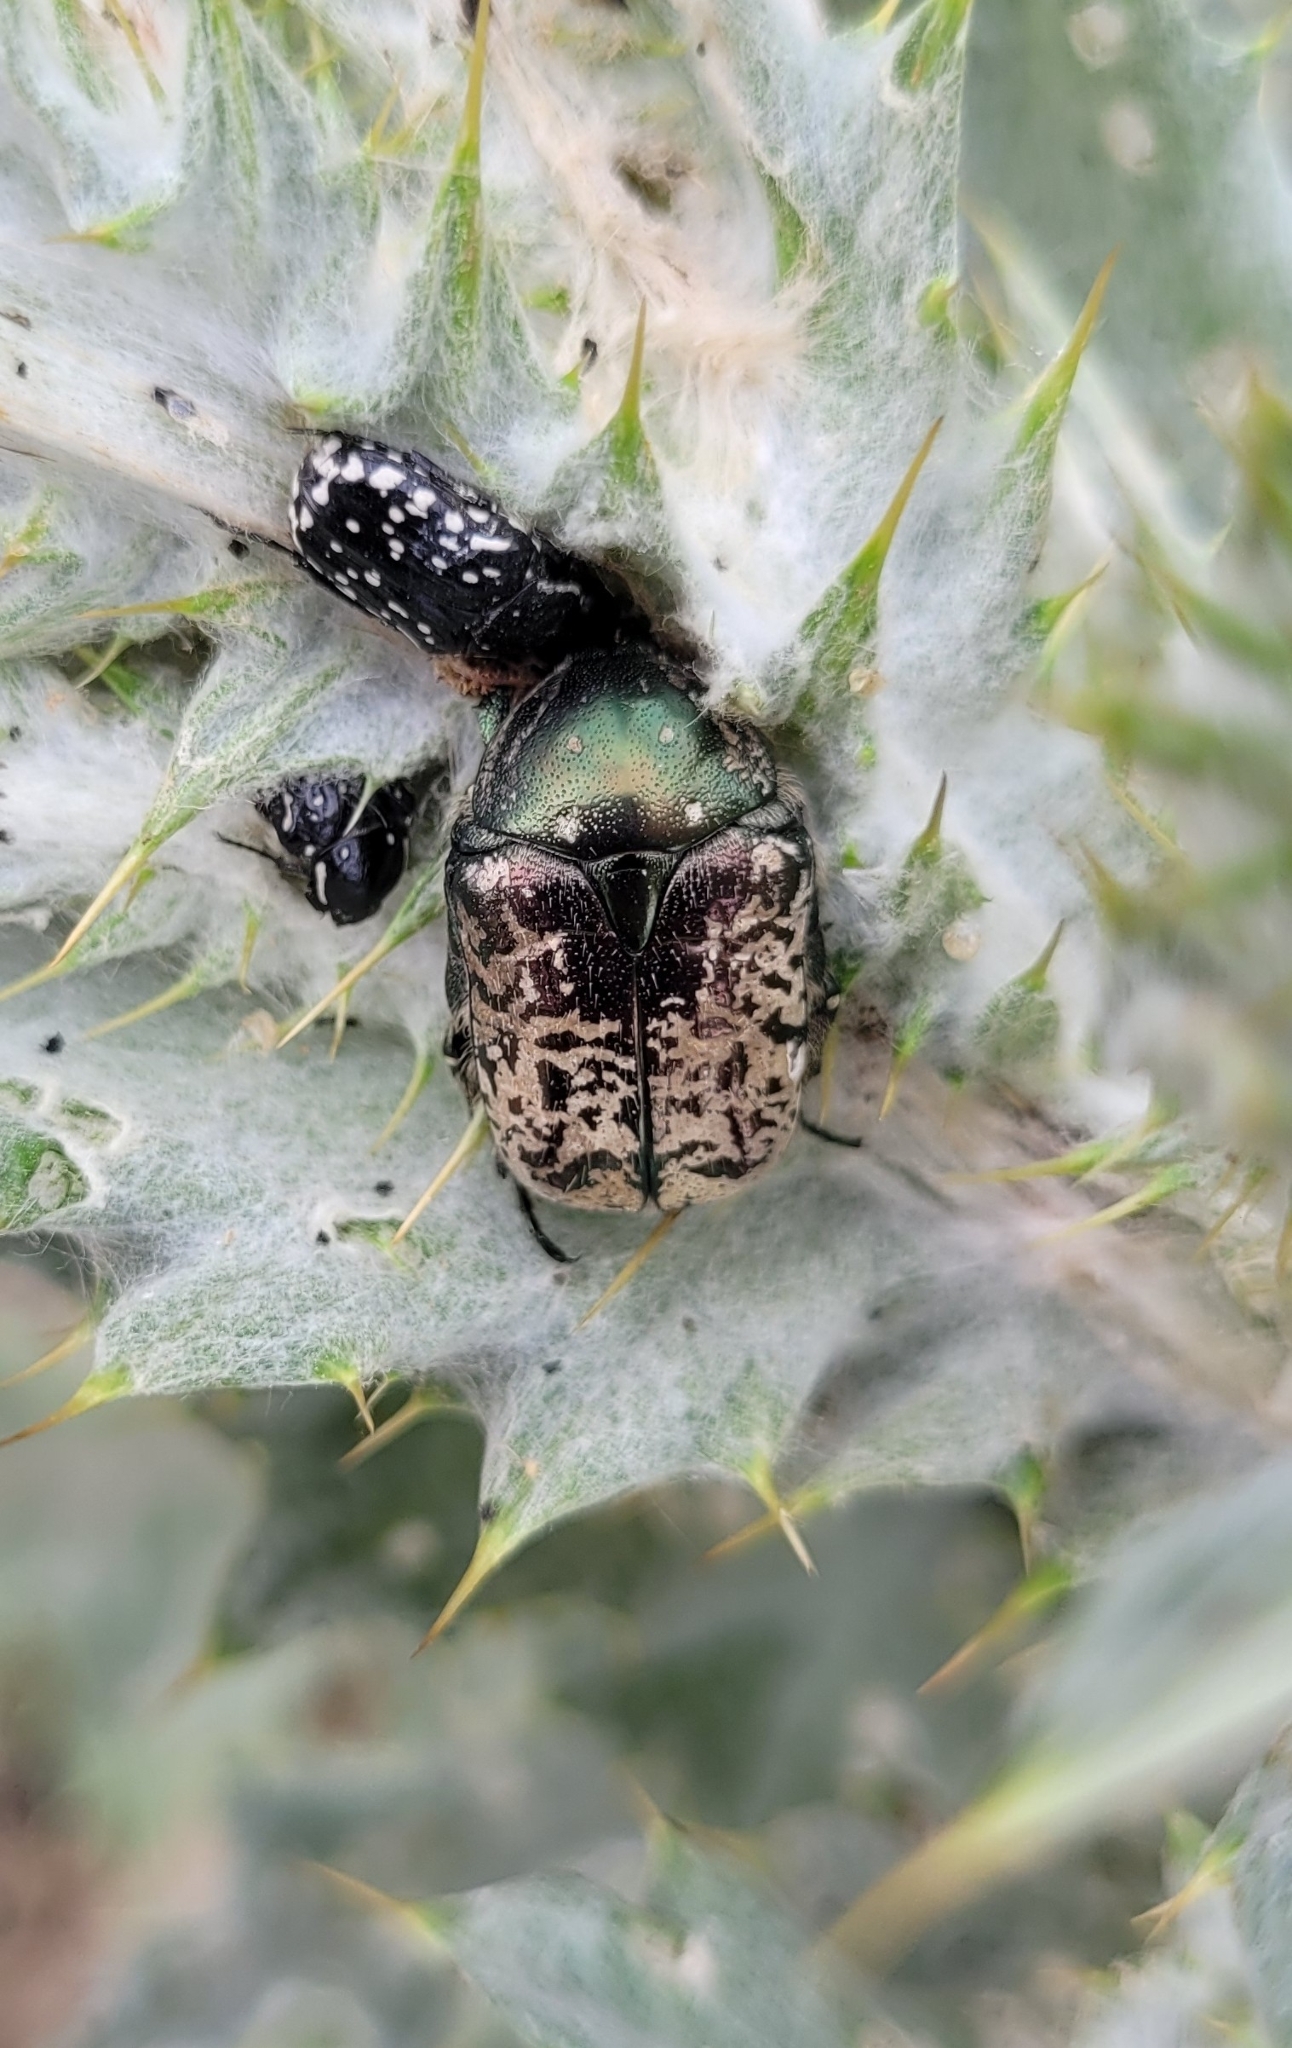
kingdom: Animalia
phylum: Arthropoda
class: Insecta
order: Coleoptera
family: Scarabaeidae
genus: Protaetia
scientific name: Protaetia karelini
